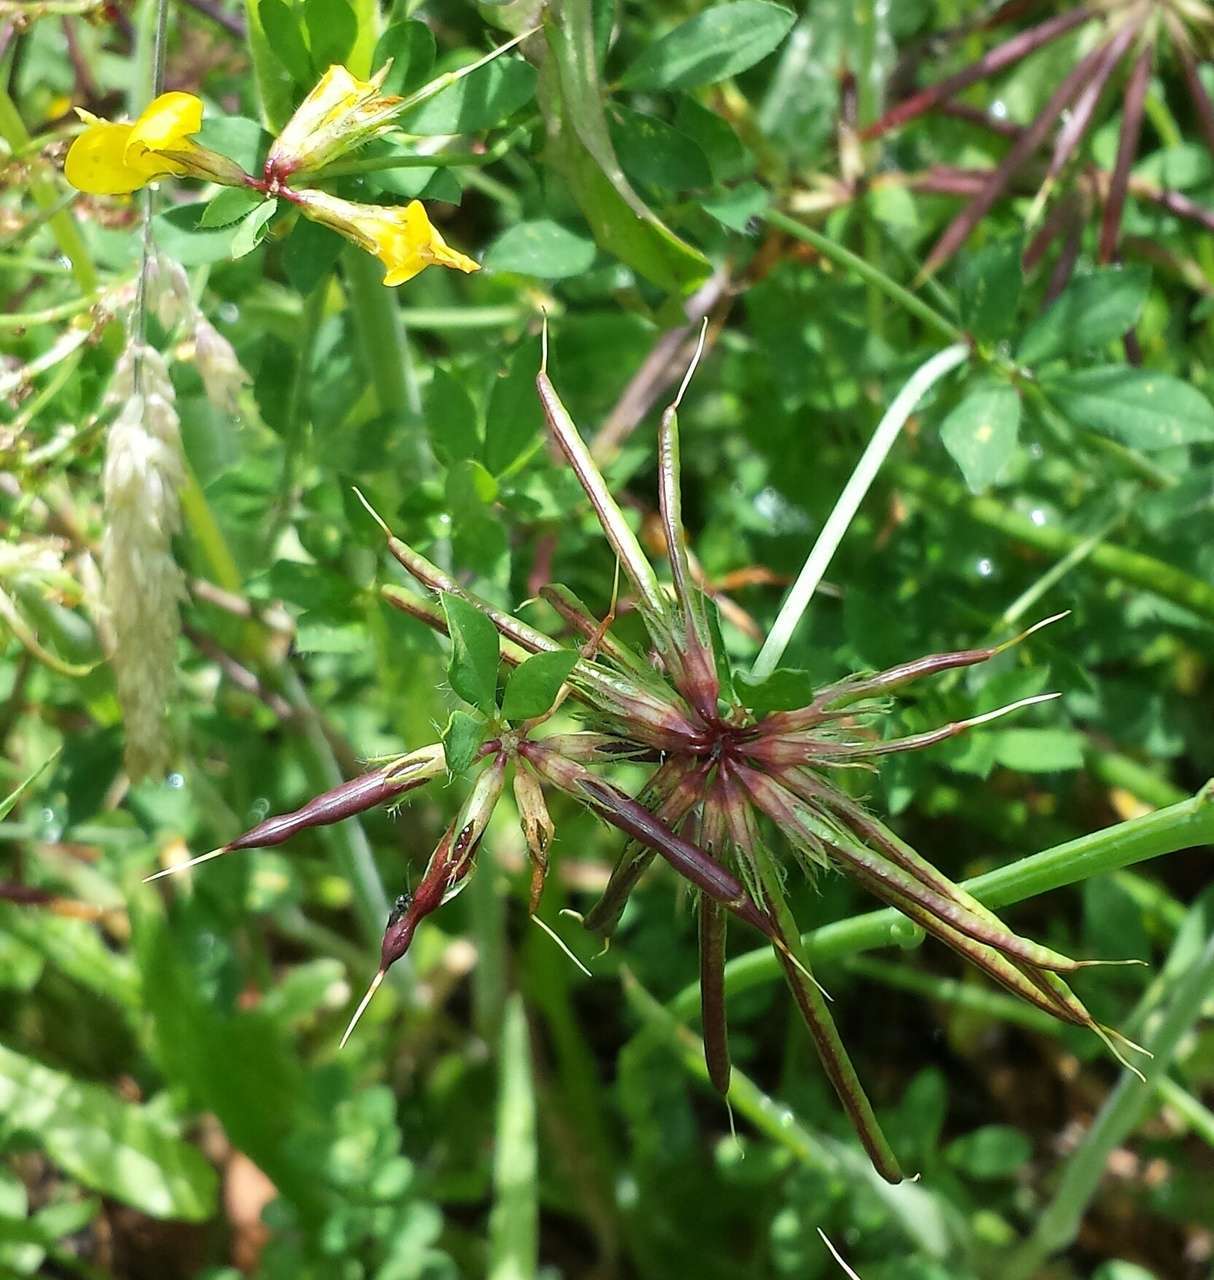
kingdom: Plantae
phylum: Tracheophyta
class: Magnoliopsida
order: Fabales
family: Fabaceae
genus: Lotus
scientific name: Lotus
